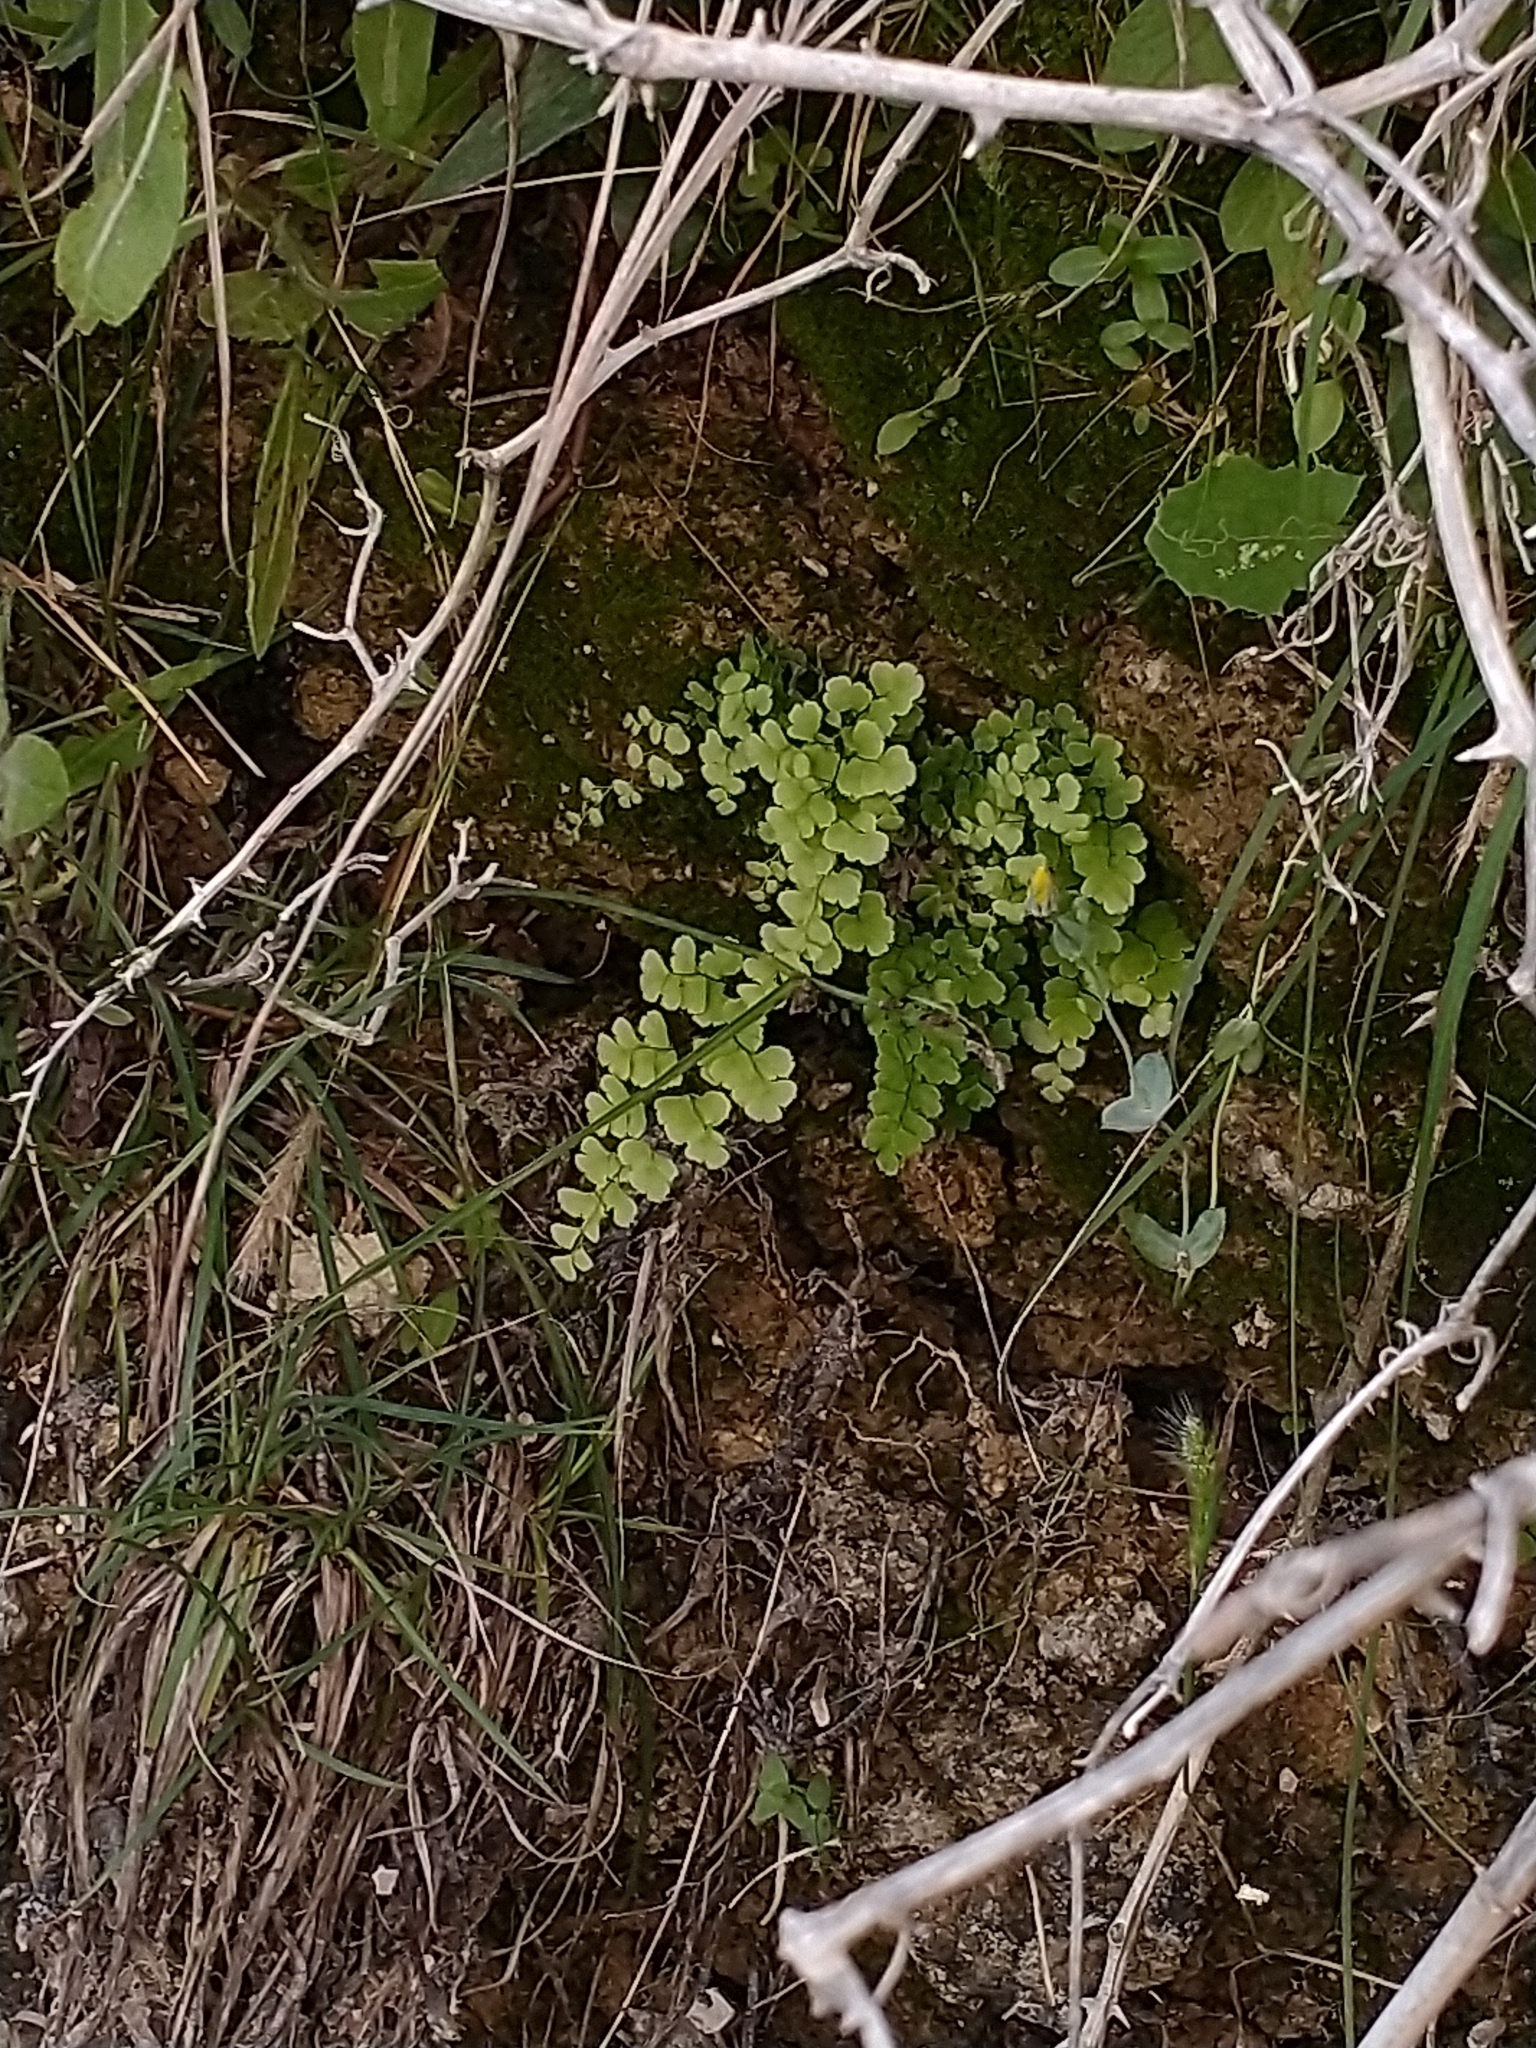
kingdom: Plantae
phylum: Tracheophyta
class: Polypodiopsida
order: Polypodiales
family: Pteridaceae
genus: Adiantum
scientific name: Adiantum capillus-veneris
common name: Maidenhair fern
